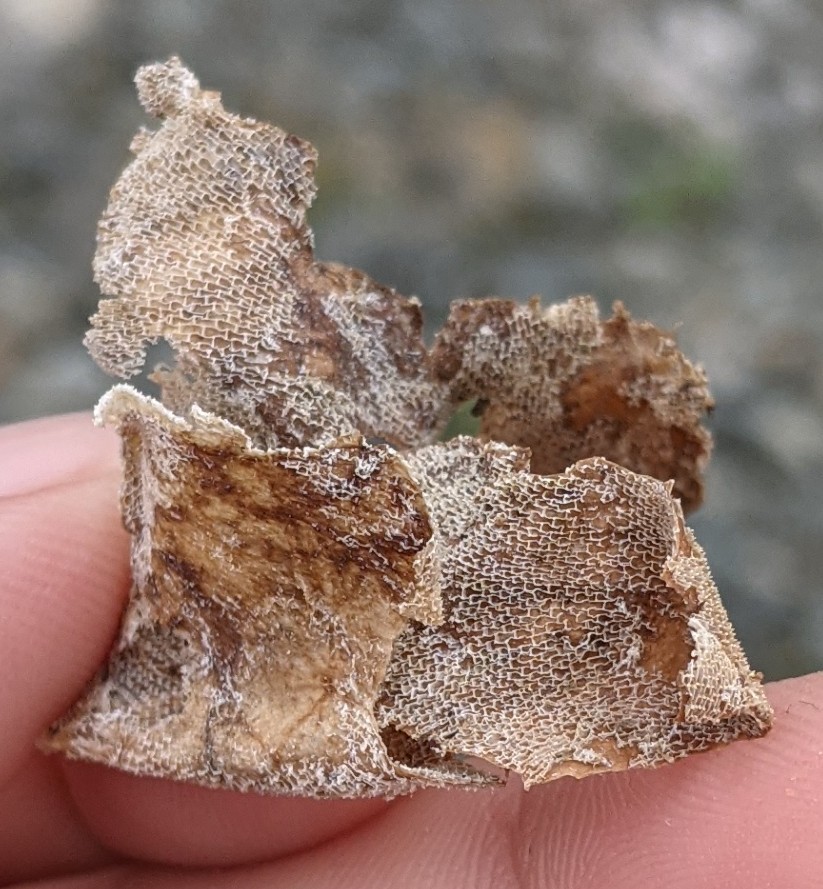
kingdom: Animalia
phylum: Bryozoa
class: Gymnolaemata
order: Cheilostomatida
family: Membraniporidae
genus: Membranipora
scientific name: Membranipora membranacea
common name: Sea mat
